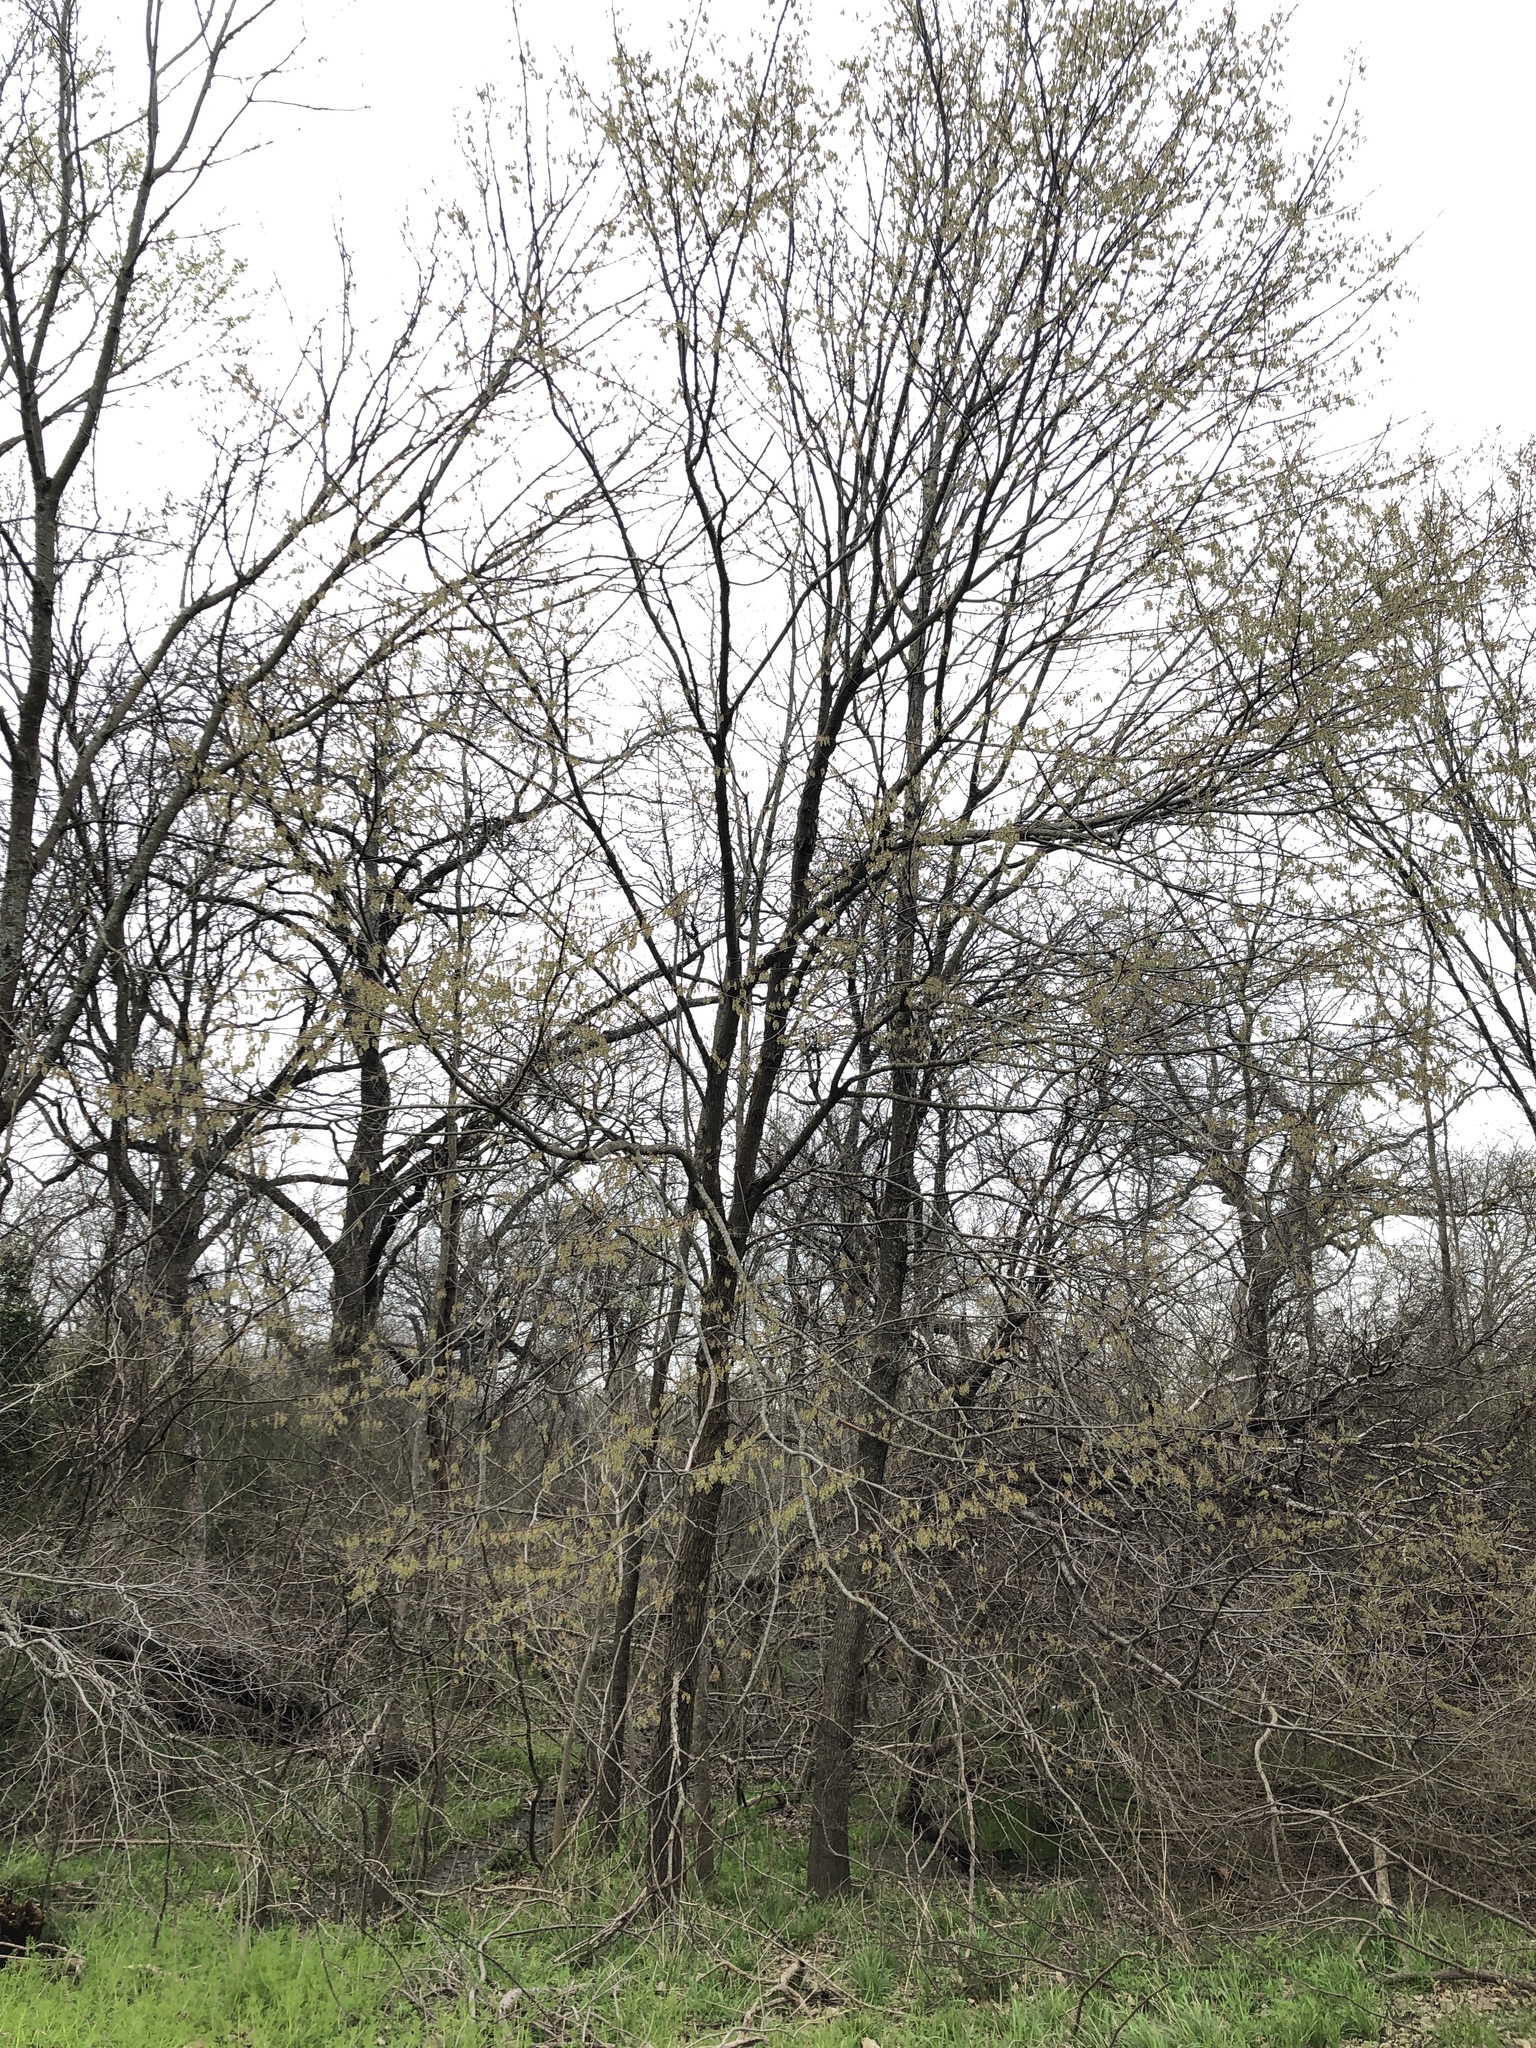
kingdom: Plantae
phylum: Tracheophyta
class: Magnoliopsida
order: Rosales
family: Ulmaceae
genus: Ulmus
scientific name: Ulmus americana
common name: American elm
